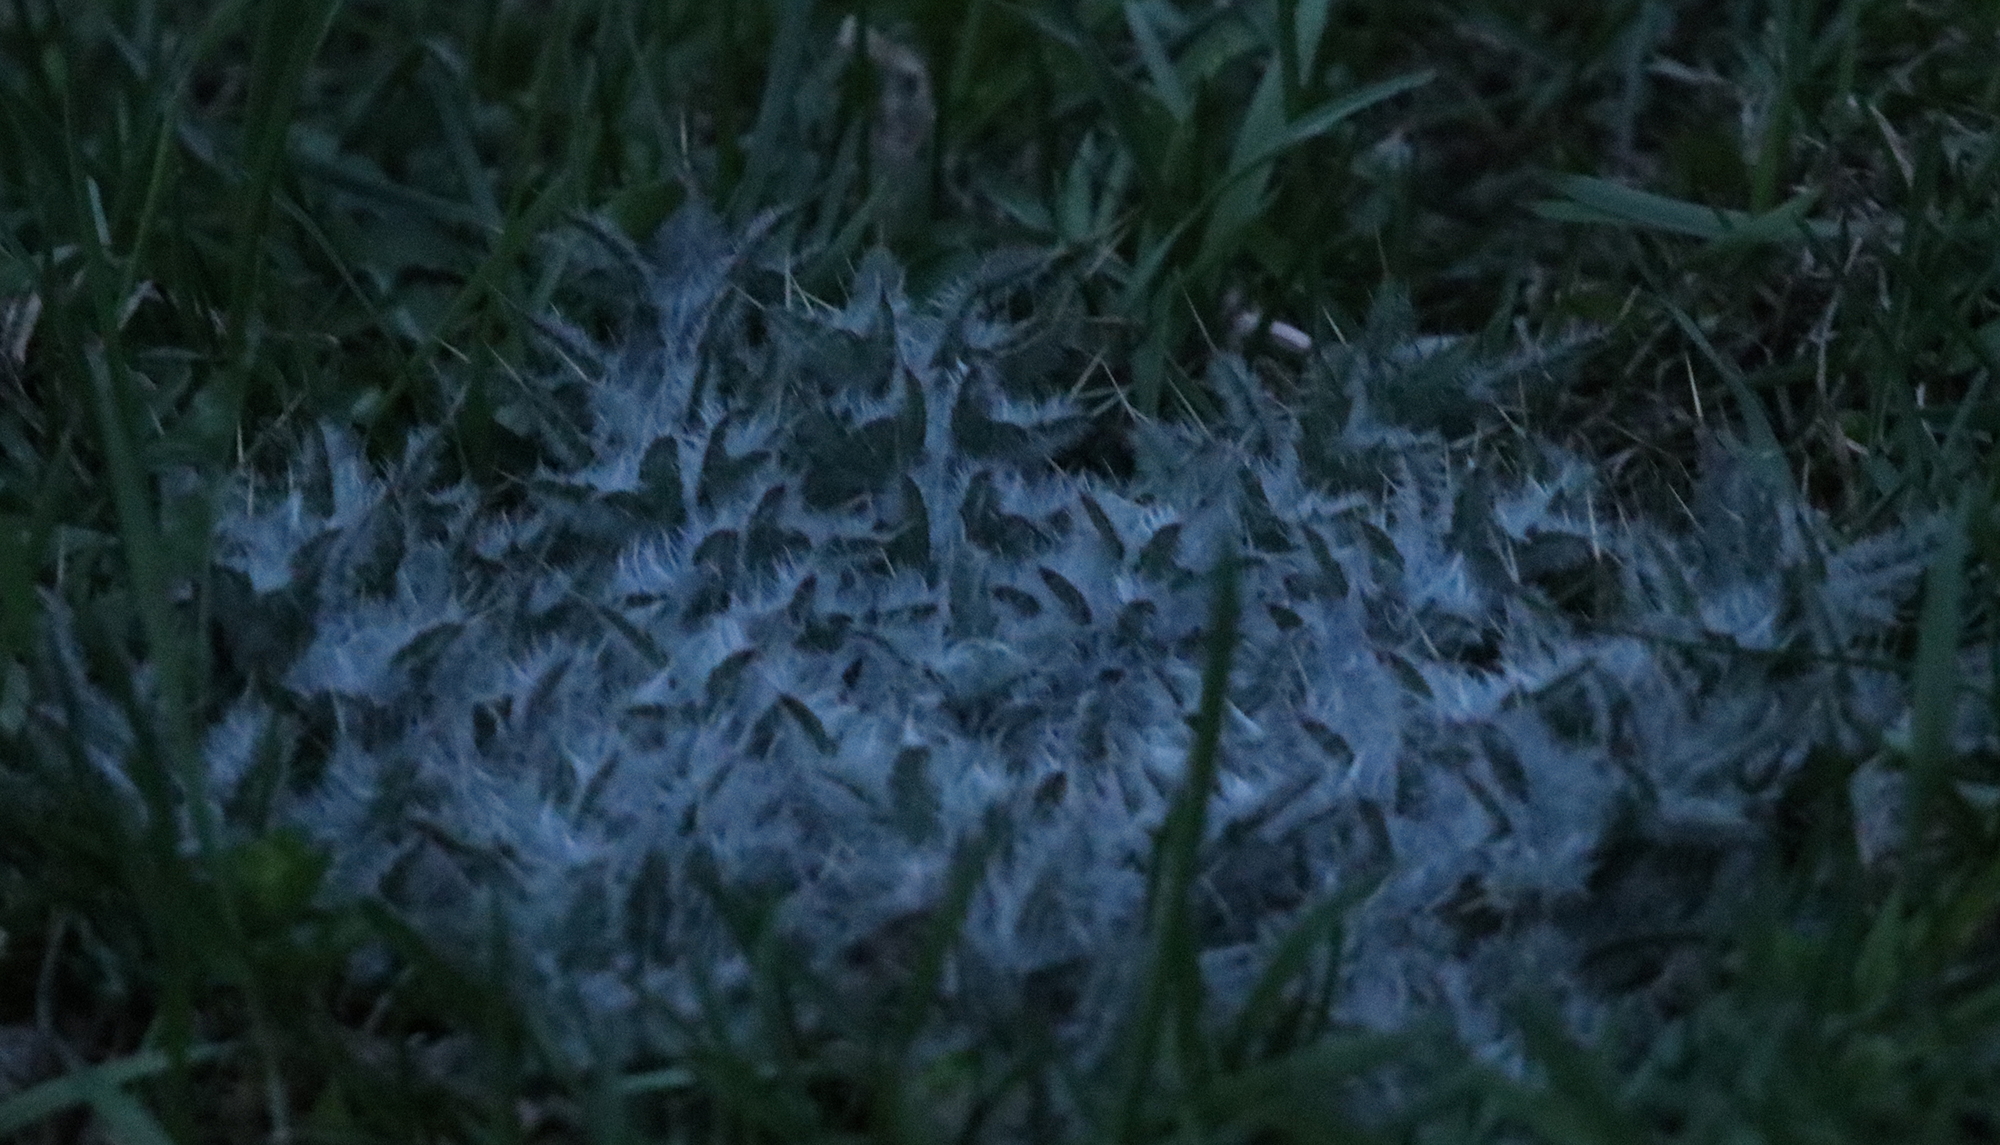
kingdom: Plantae
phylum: Tracheophyta
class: Magnoliopsida
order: Asterales
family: Asteraceae
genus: Cirsium
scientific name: Cirsium vulgare
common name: Bull thistle
